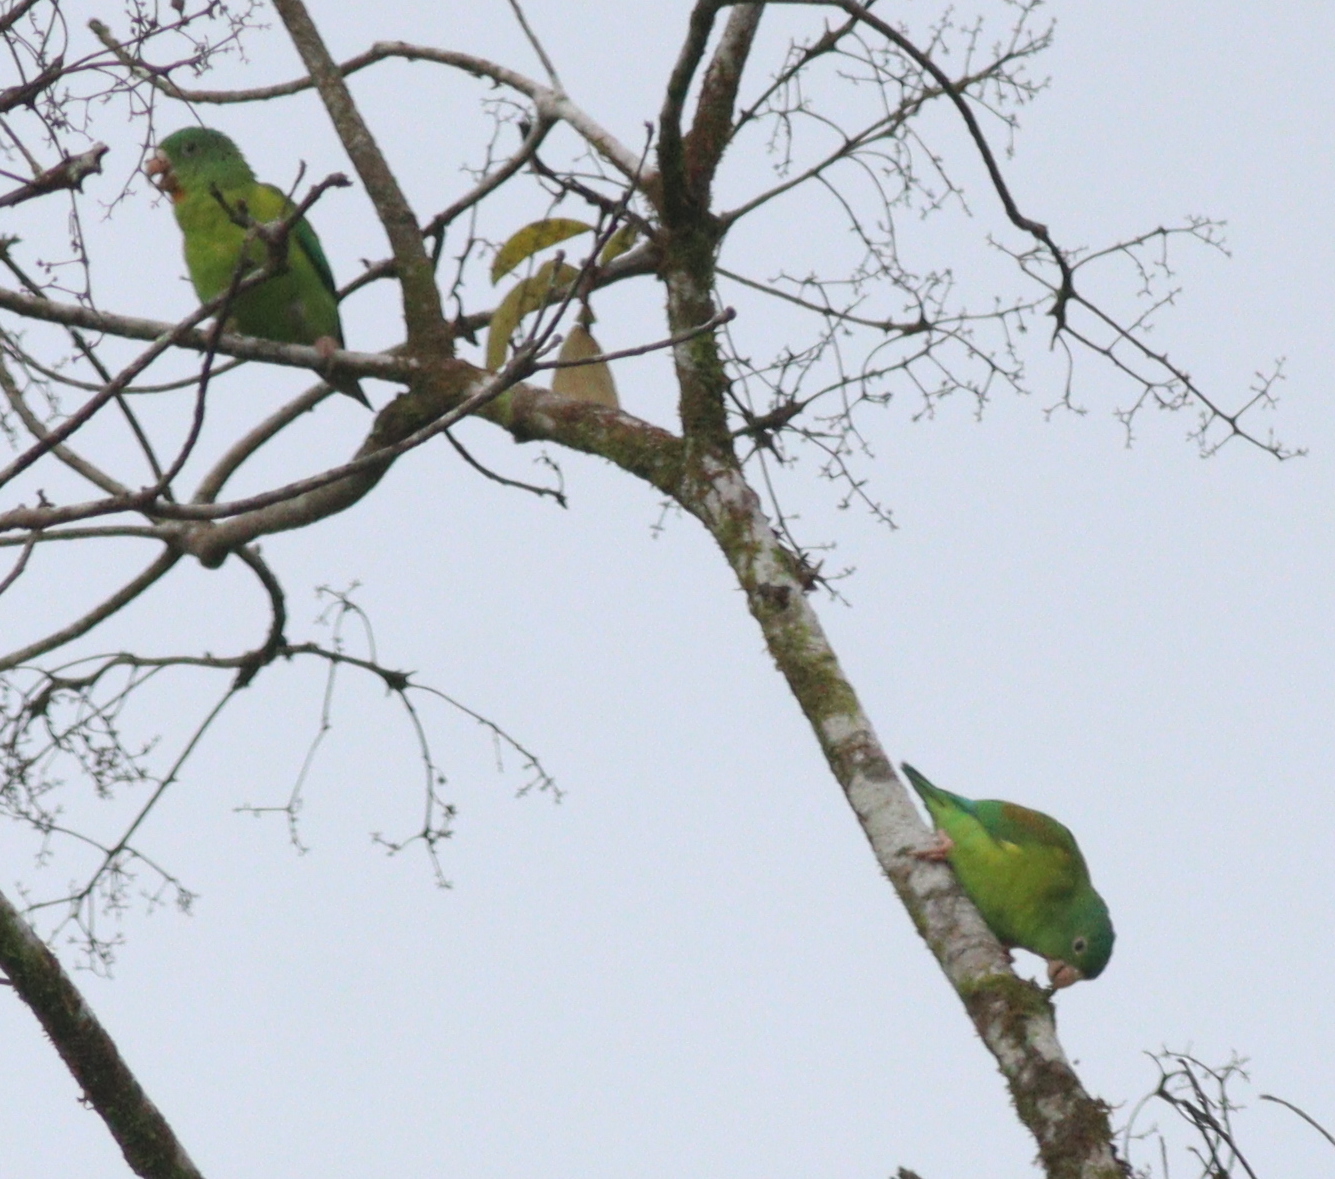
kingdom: Animalia
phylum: Chordata
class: Aves
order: Psittaciformes
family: Psittacidae
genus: Brotogeris
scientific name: Brotogeris jugularis
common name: Orange-chinned parakeet
